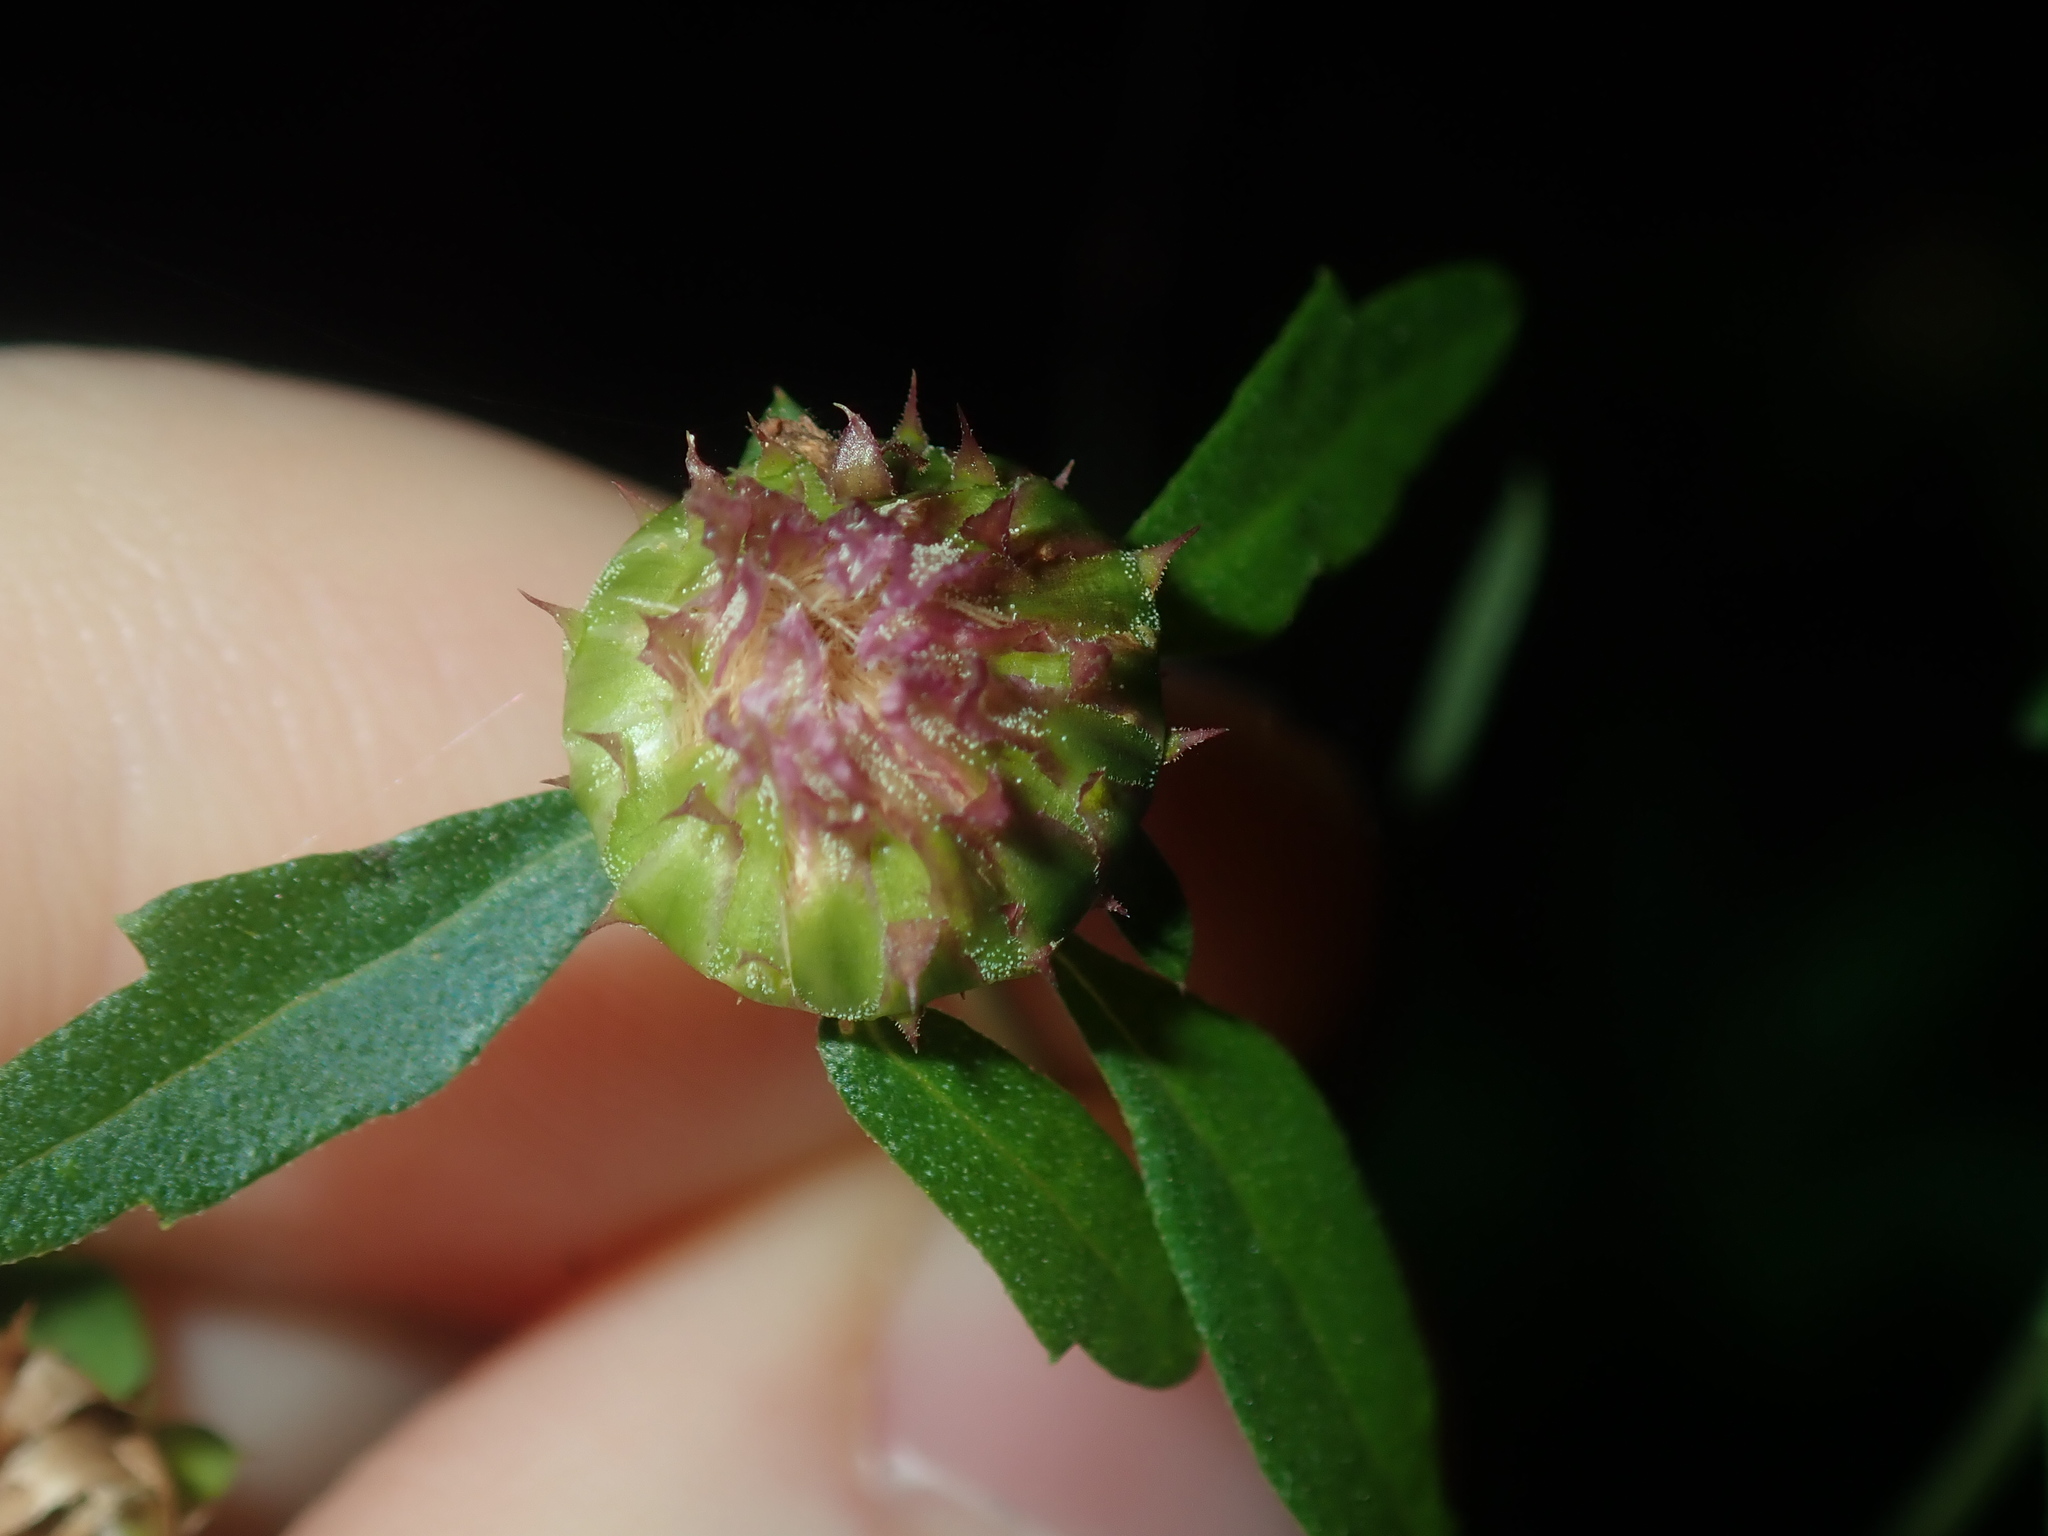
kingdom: Plantae
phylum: Tracheophyta
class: Magnoliopsida
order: Asterales
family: Asteraceae
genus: Centratherum
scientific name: Centratherum punctatum
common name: Larkdaisy
